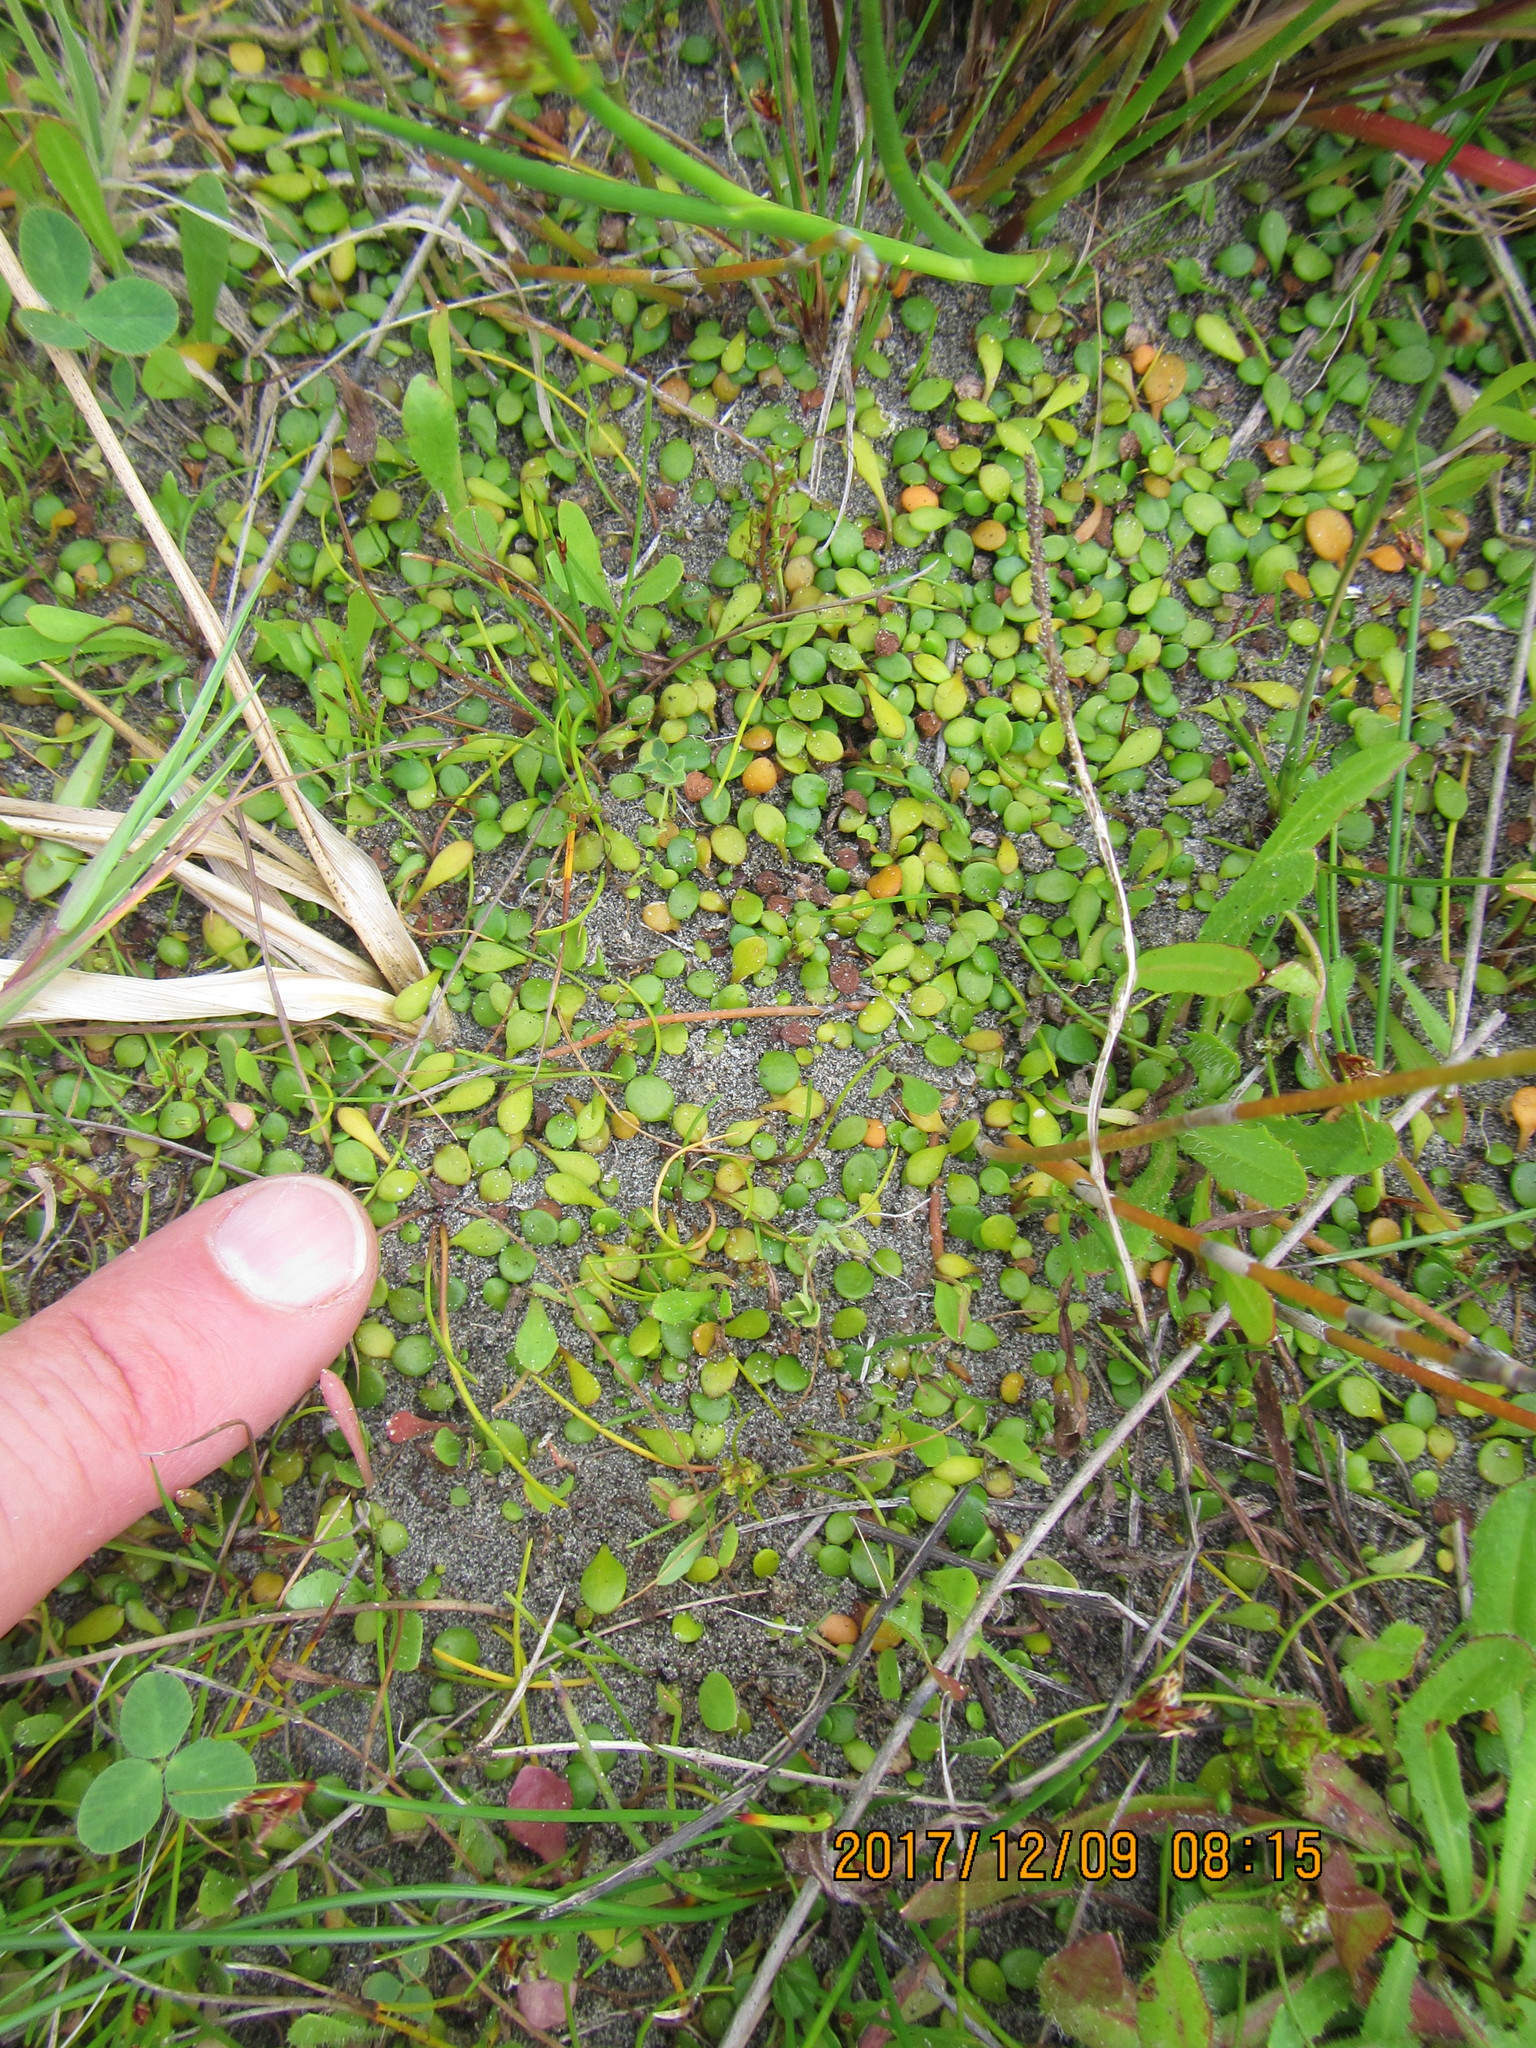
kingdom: Plantae
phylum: Tracheophyta
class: Magnoliopsida
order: Asterales
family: Goodeniaceae
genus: Goodenia
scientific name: Goodenia radicans
